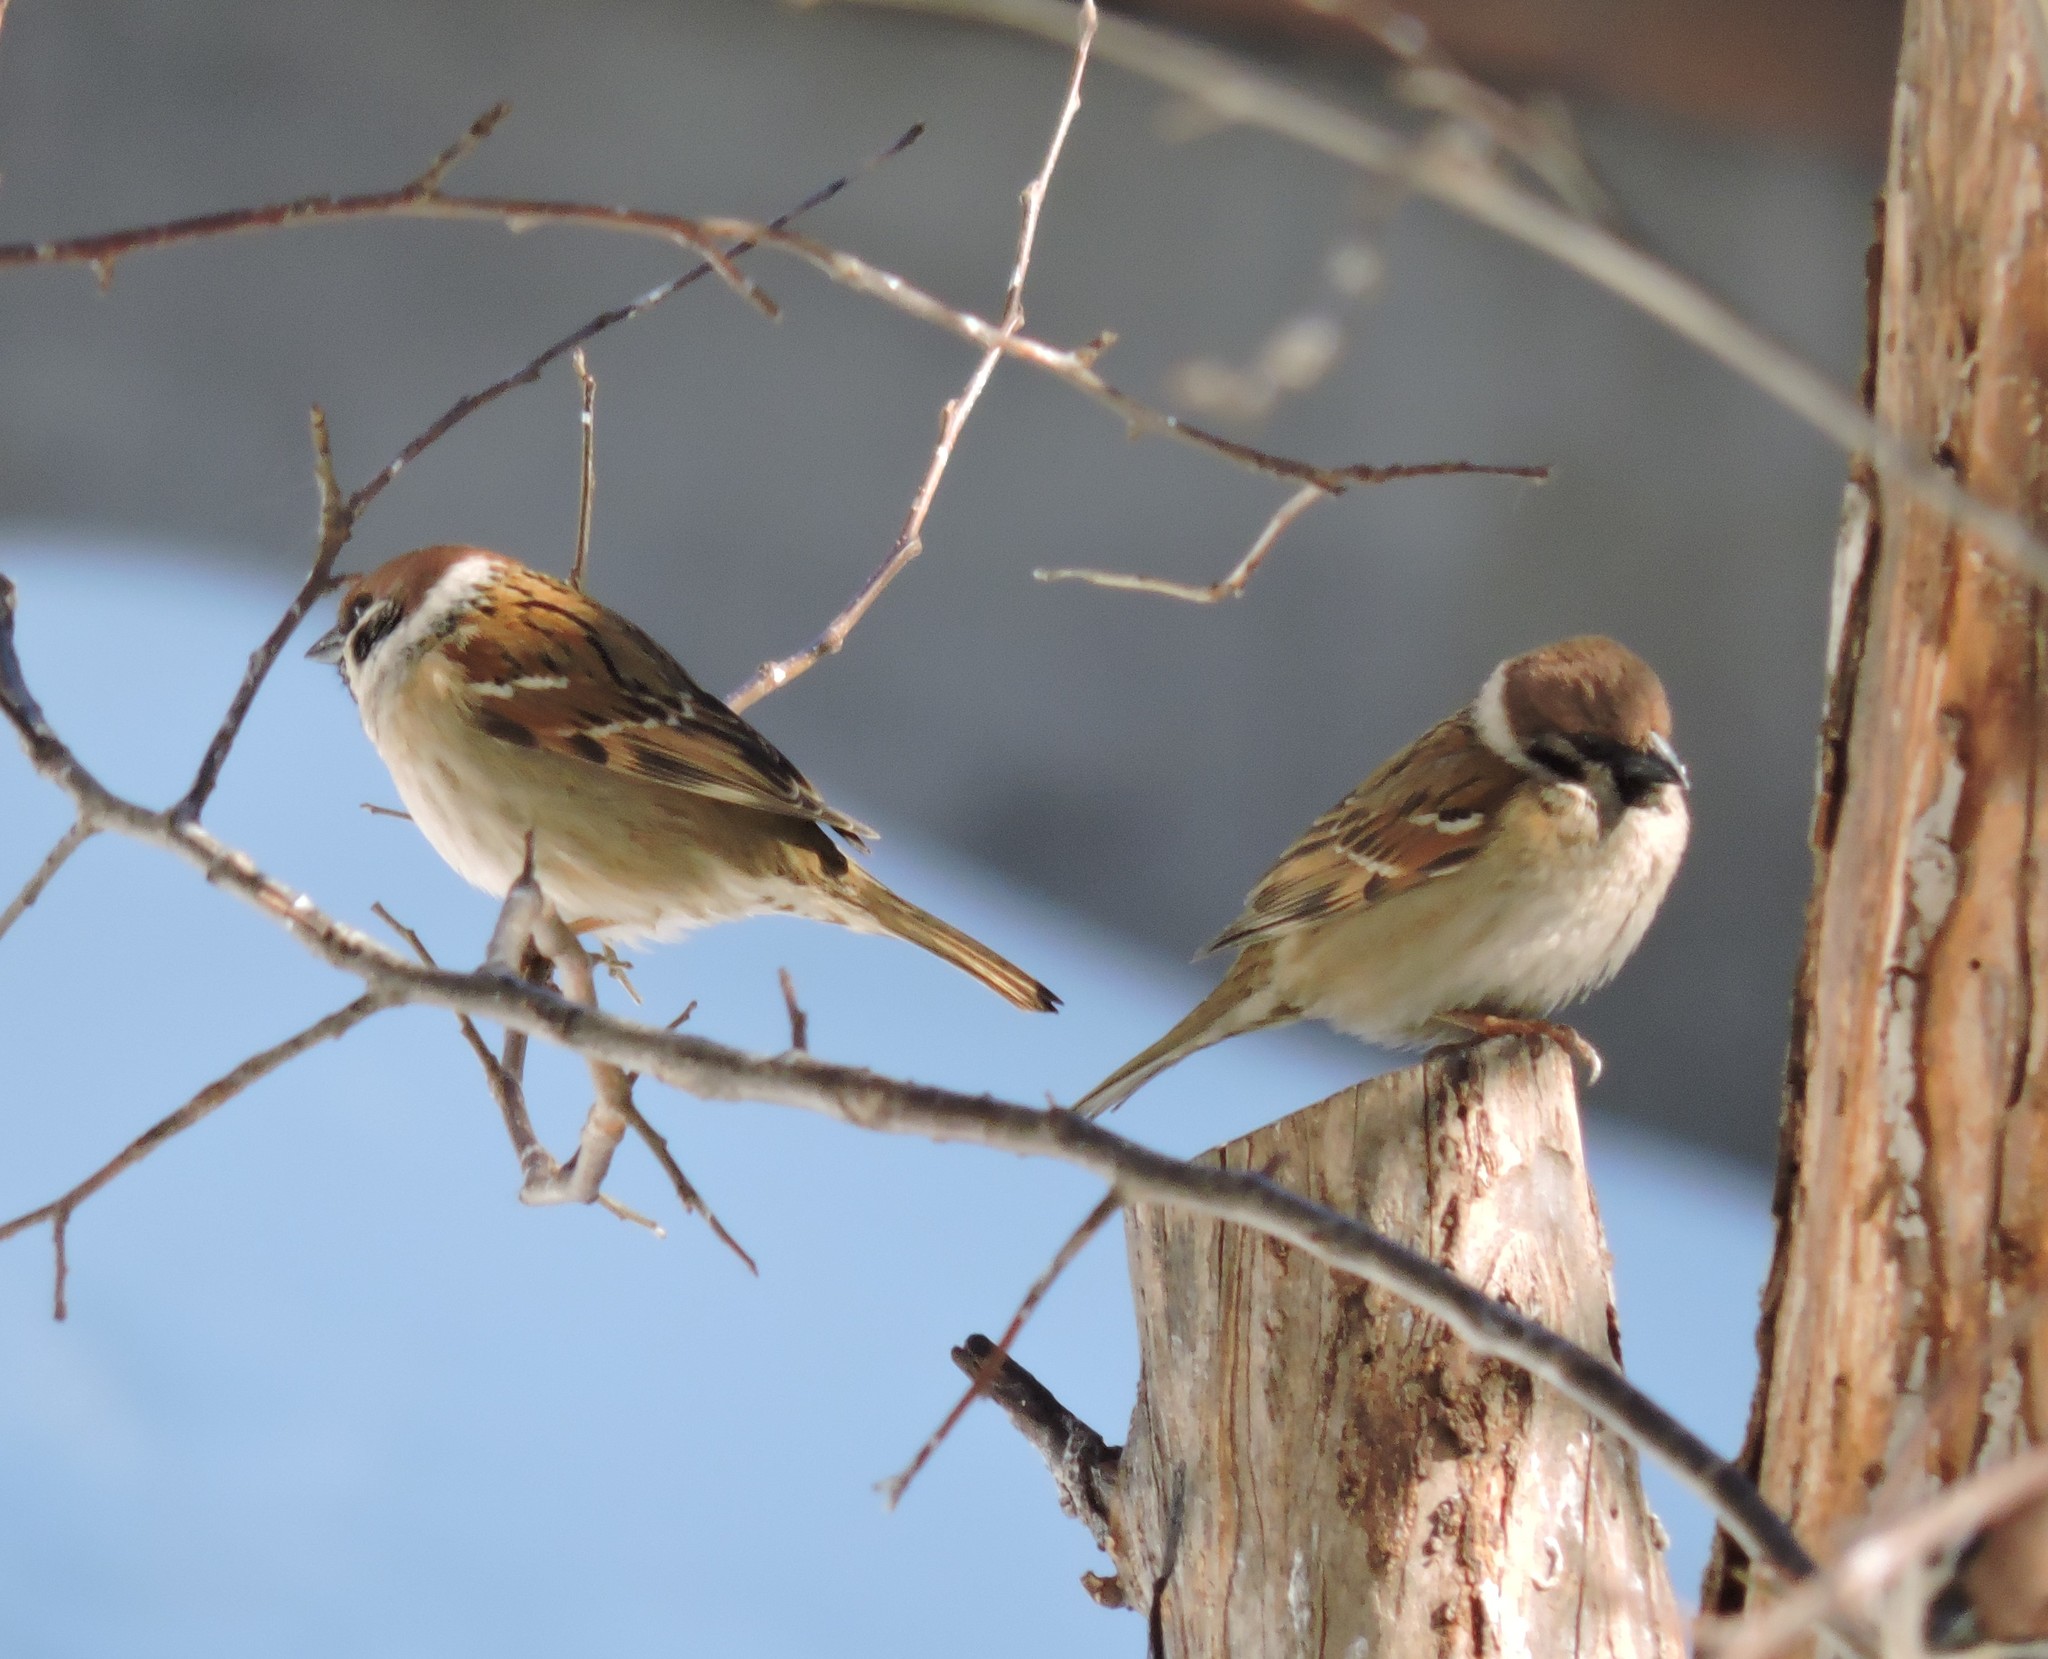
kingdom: Animalia
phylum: Chordata
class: Aves
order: Passeriformes
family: Passeridae
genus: Passer
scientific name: Passer montanus
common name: Eurasian tree sparrow
